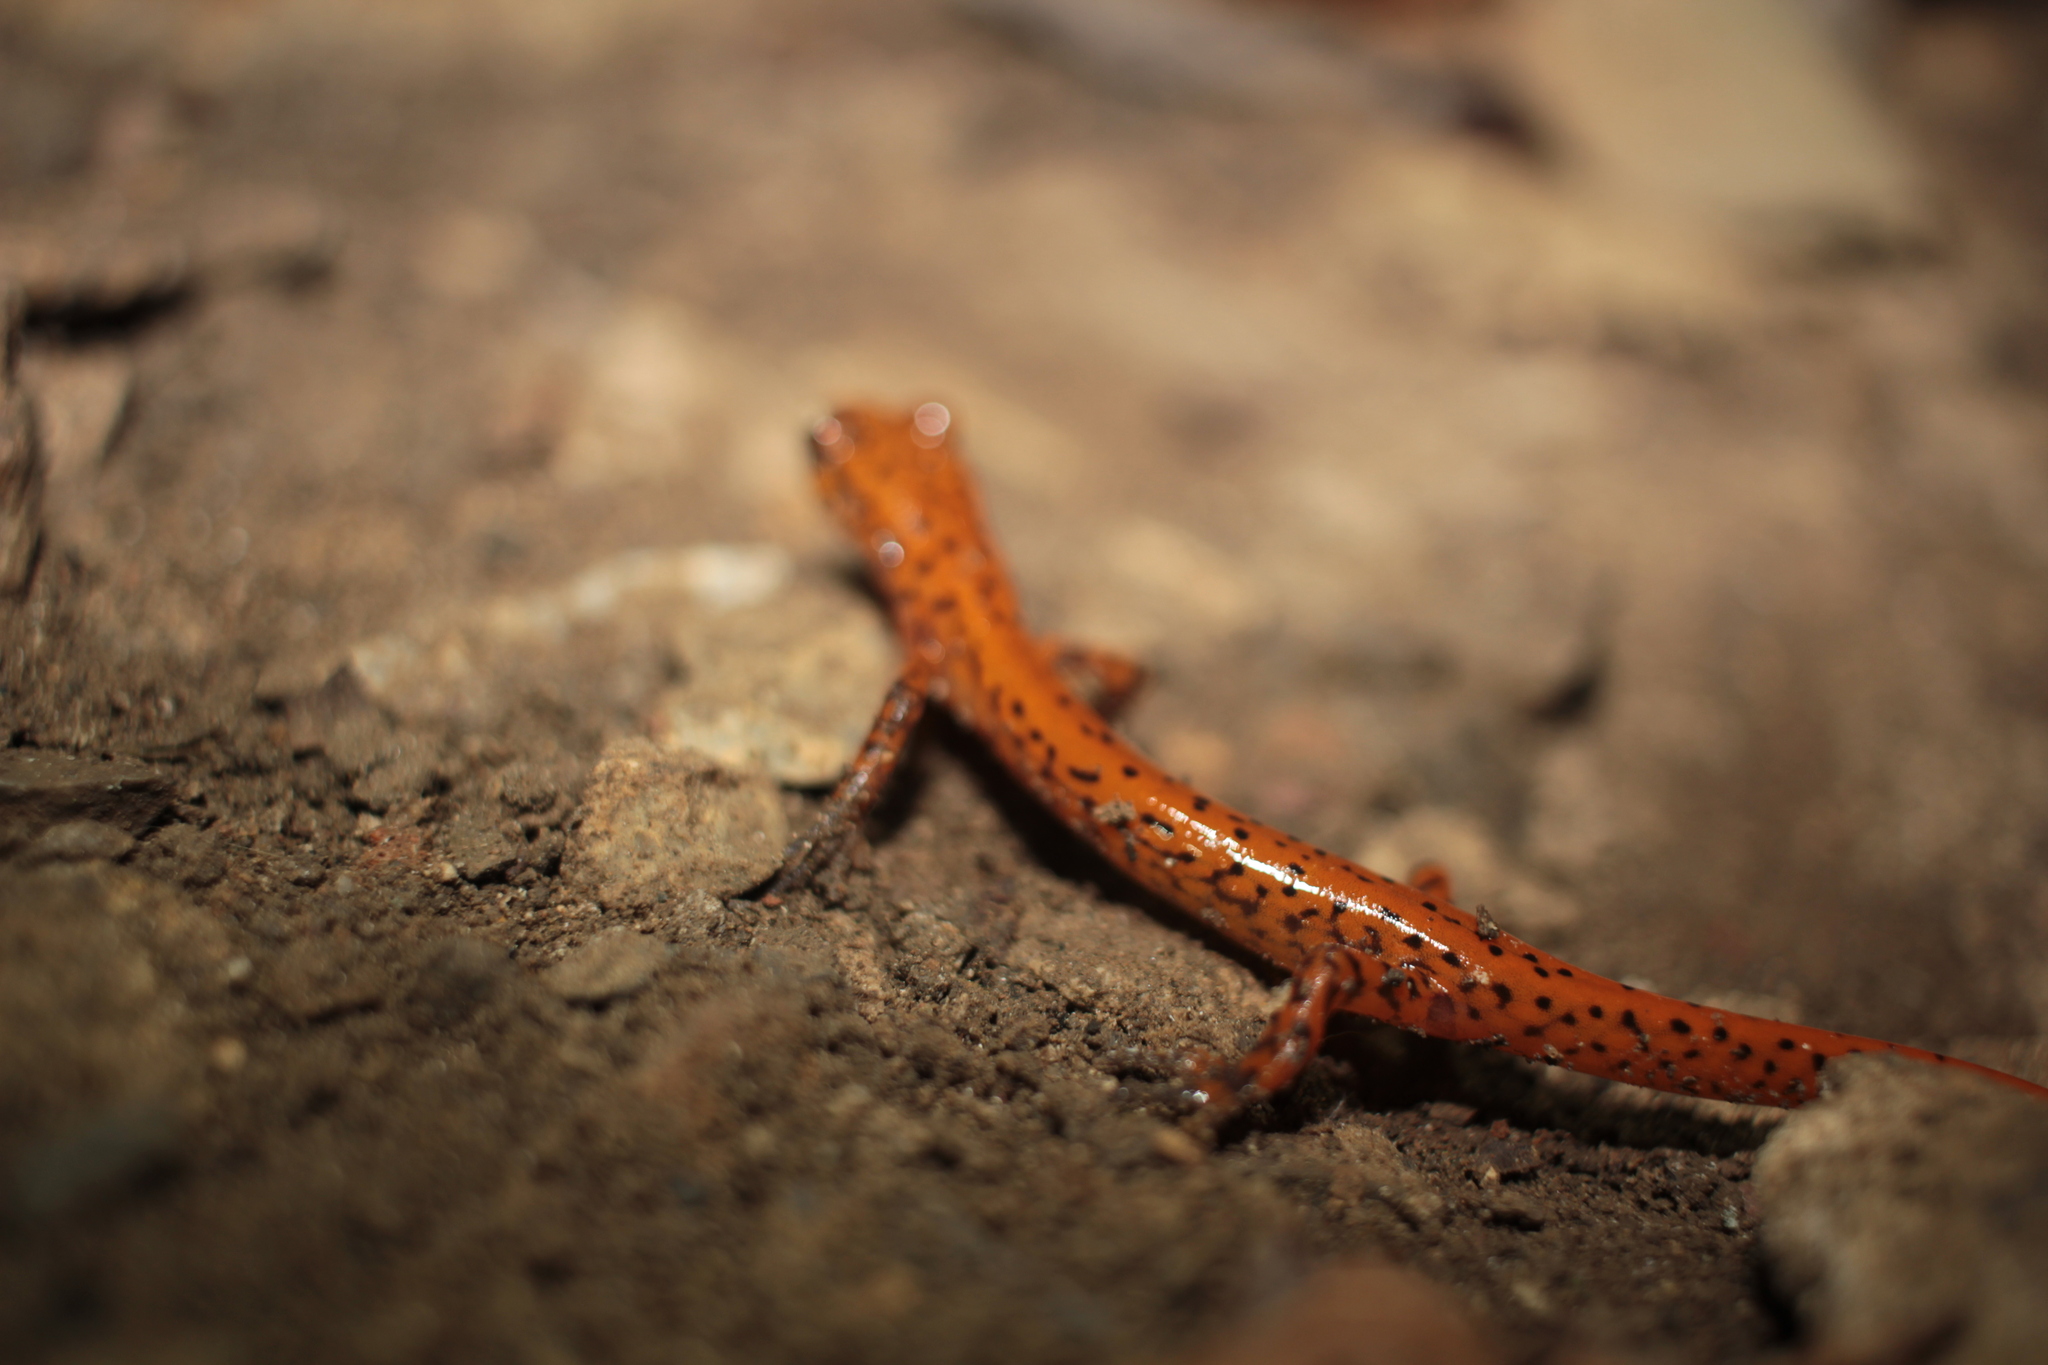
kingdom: Animalia
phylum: Chordata
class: Amphibia
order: Caudata
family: Plethodontidae
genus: Eurycea
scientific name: Eurycea lucifuga
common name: Cave salamander
